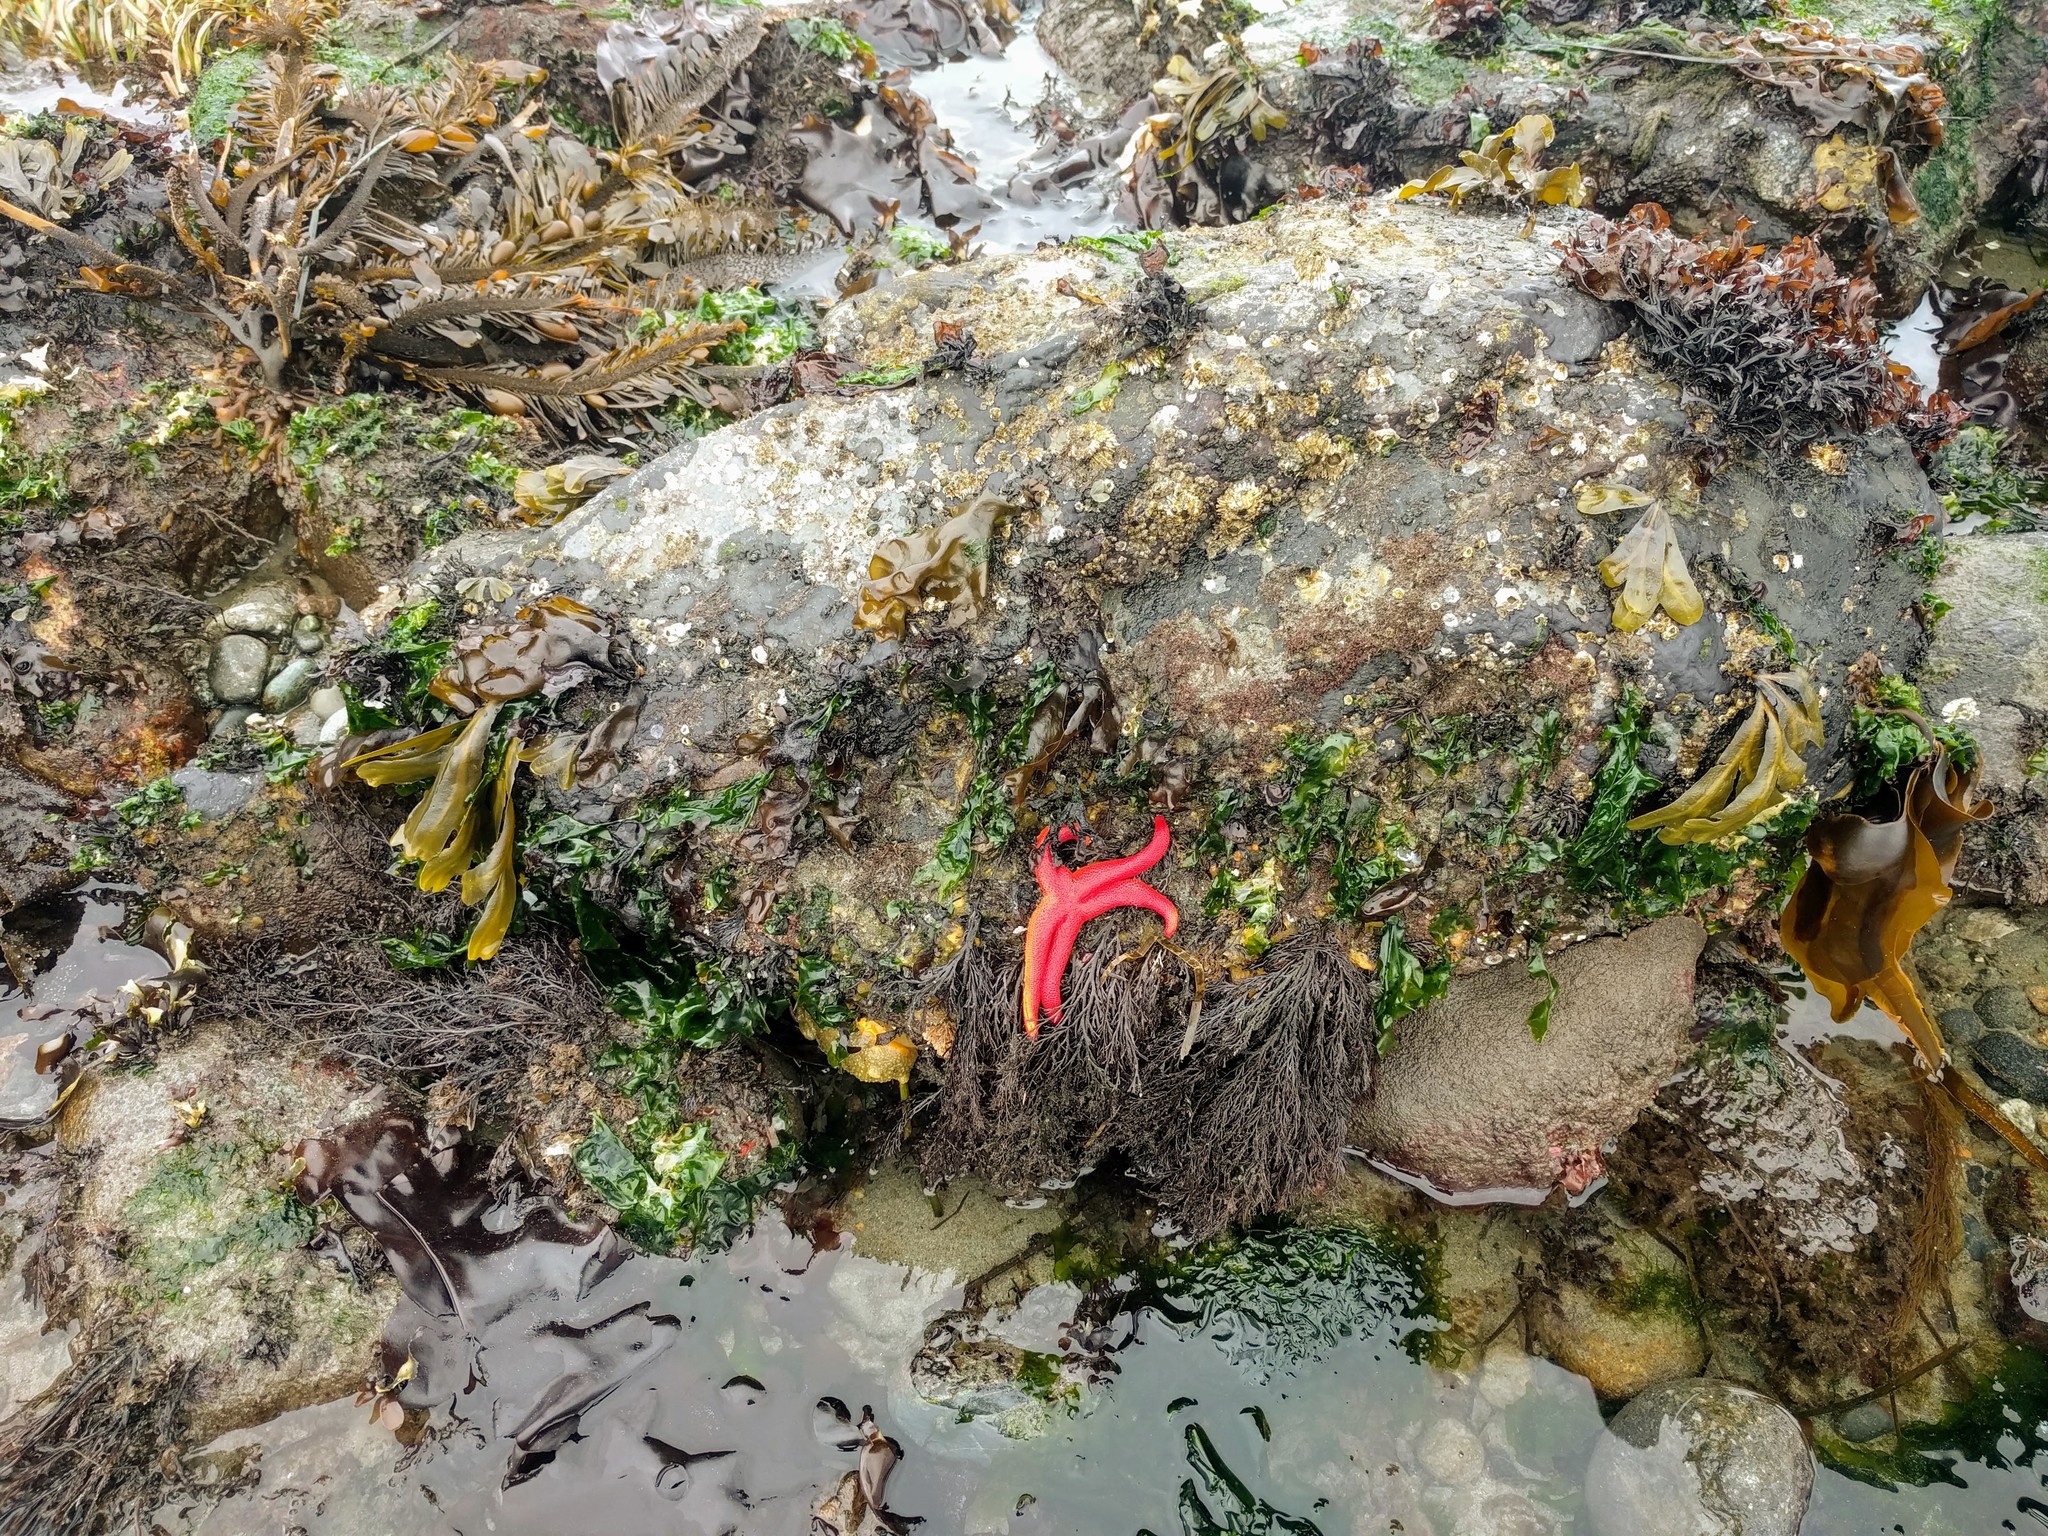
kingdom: Animalia
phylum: Mollusca
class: Gastropoda
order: Nudibranchia
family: Dorididae
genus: Doris
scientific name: Doris montereyensis
